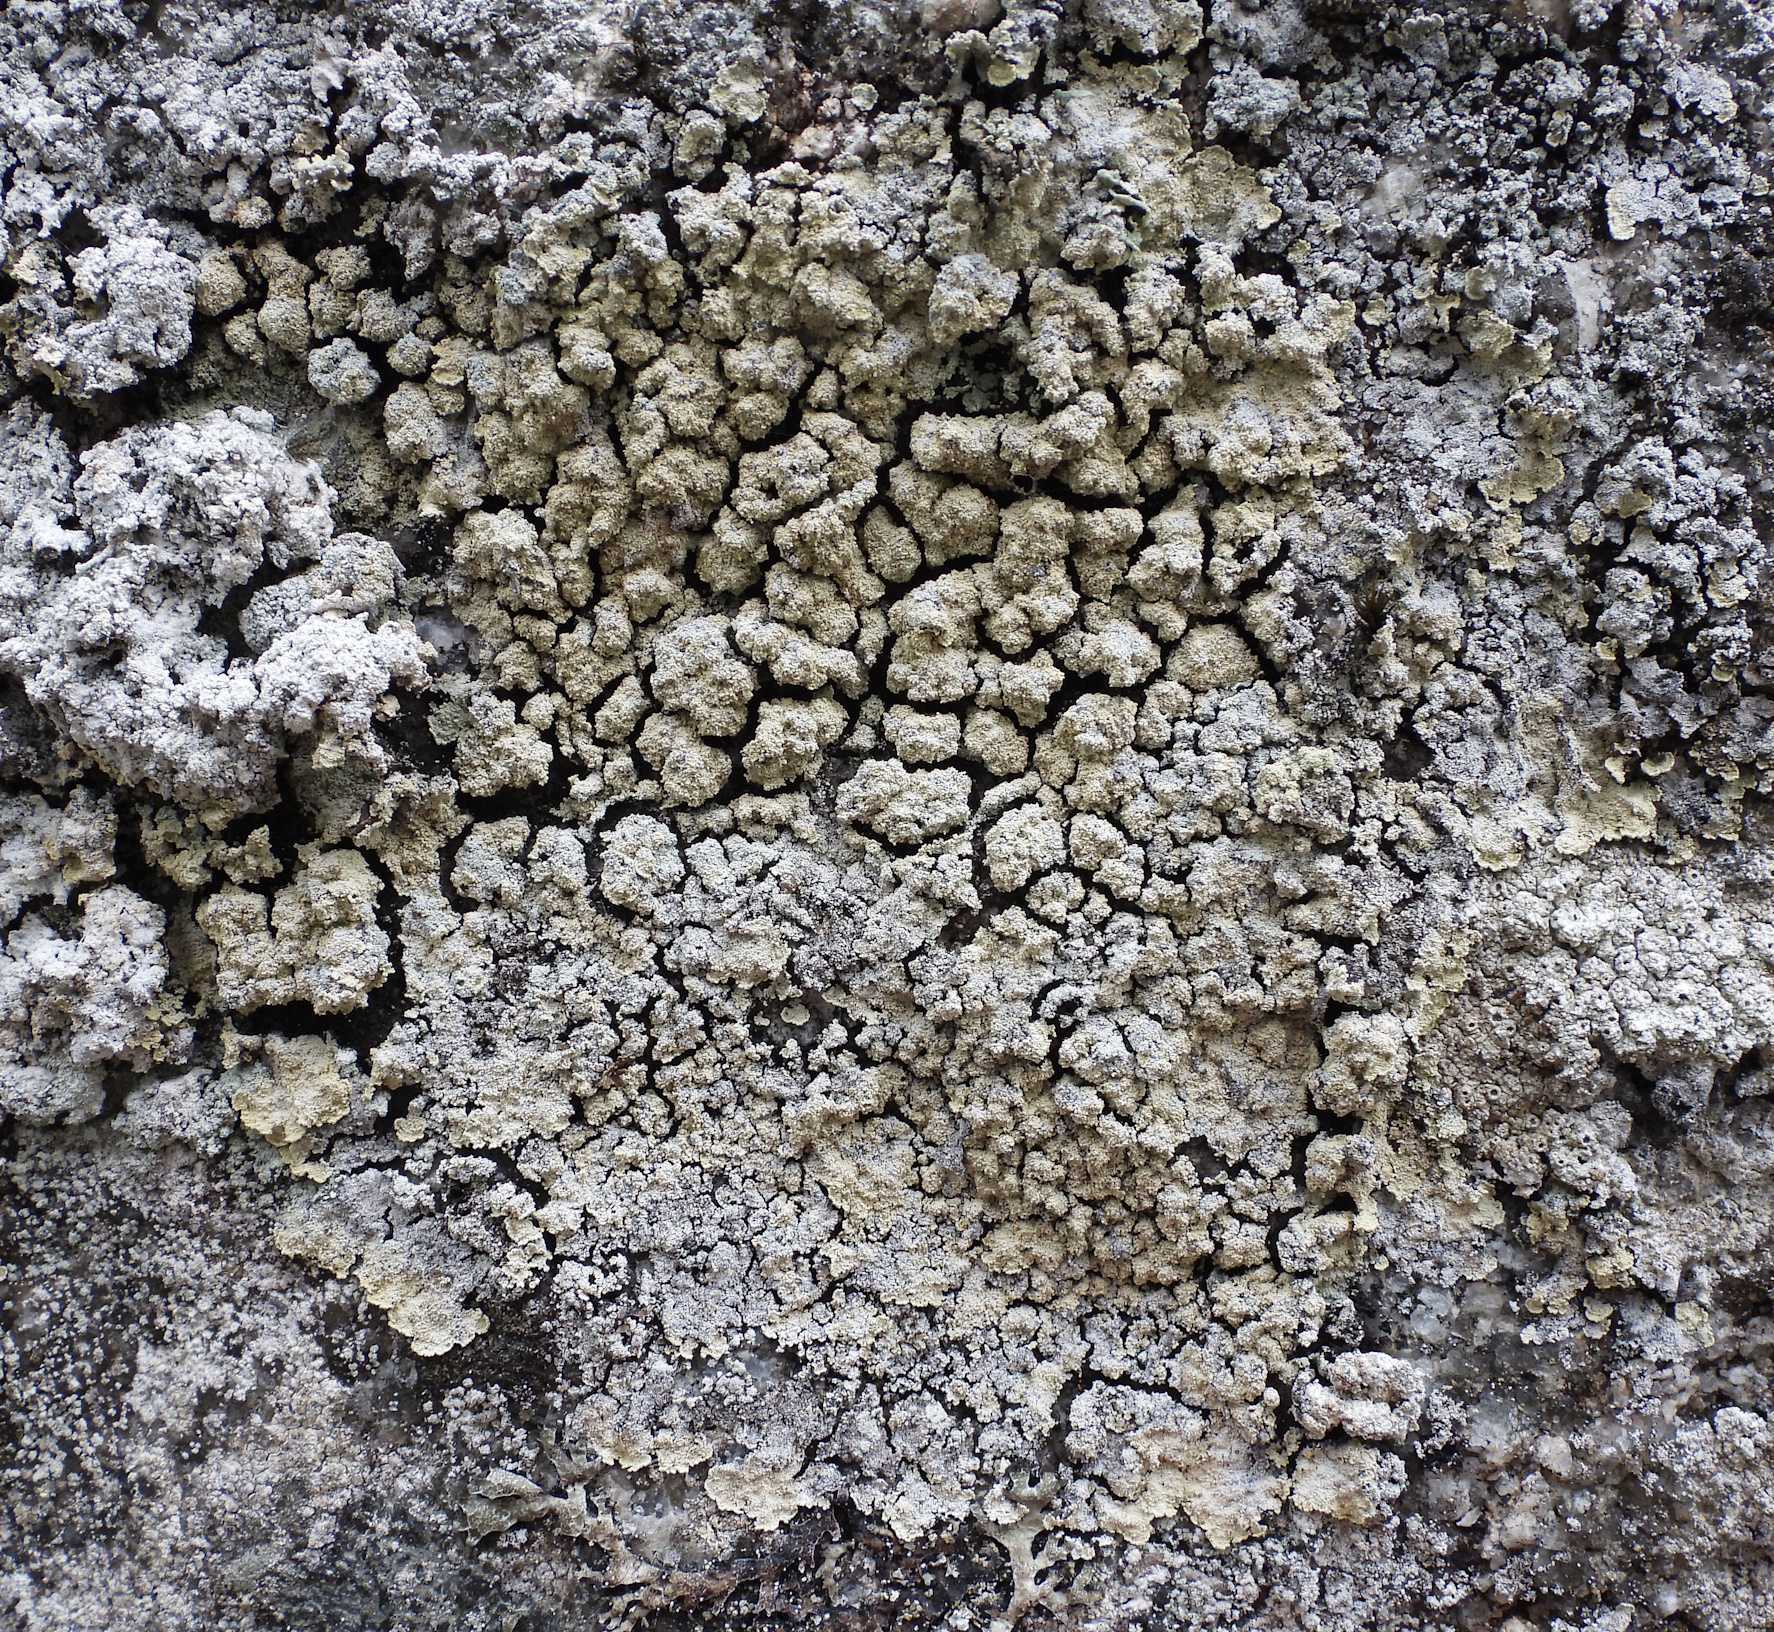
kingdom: Fungi
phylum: Ascomycota
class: Lecanoromycetes
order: Lecanorales
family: Stereocaulaceae
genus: Lepraria
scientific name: Lepraria membranacea
